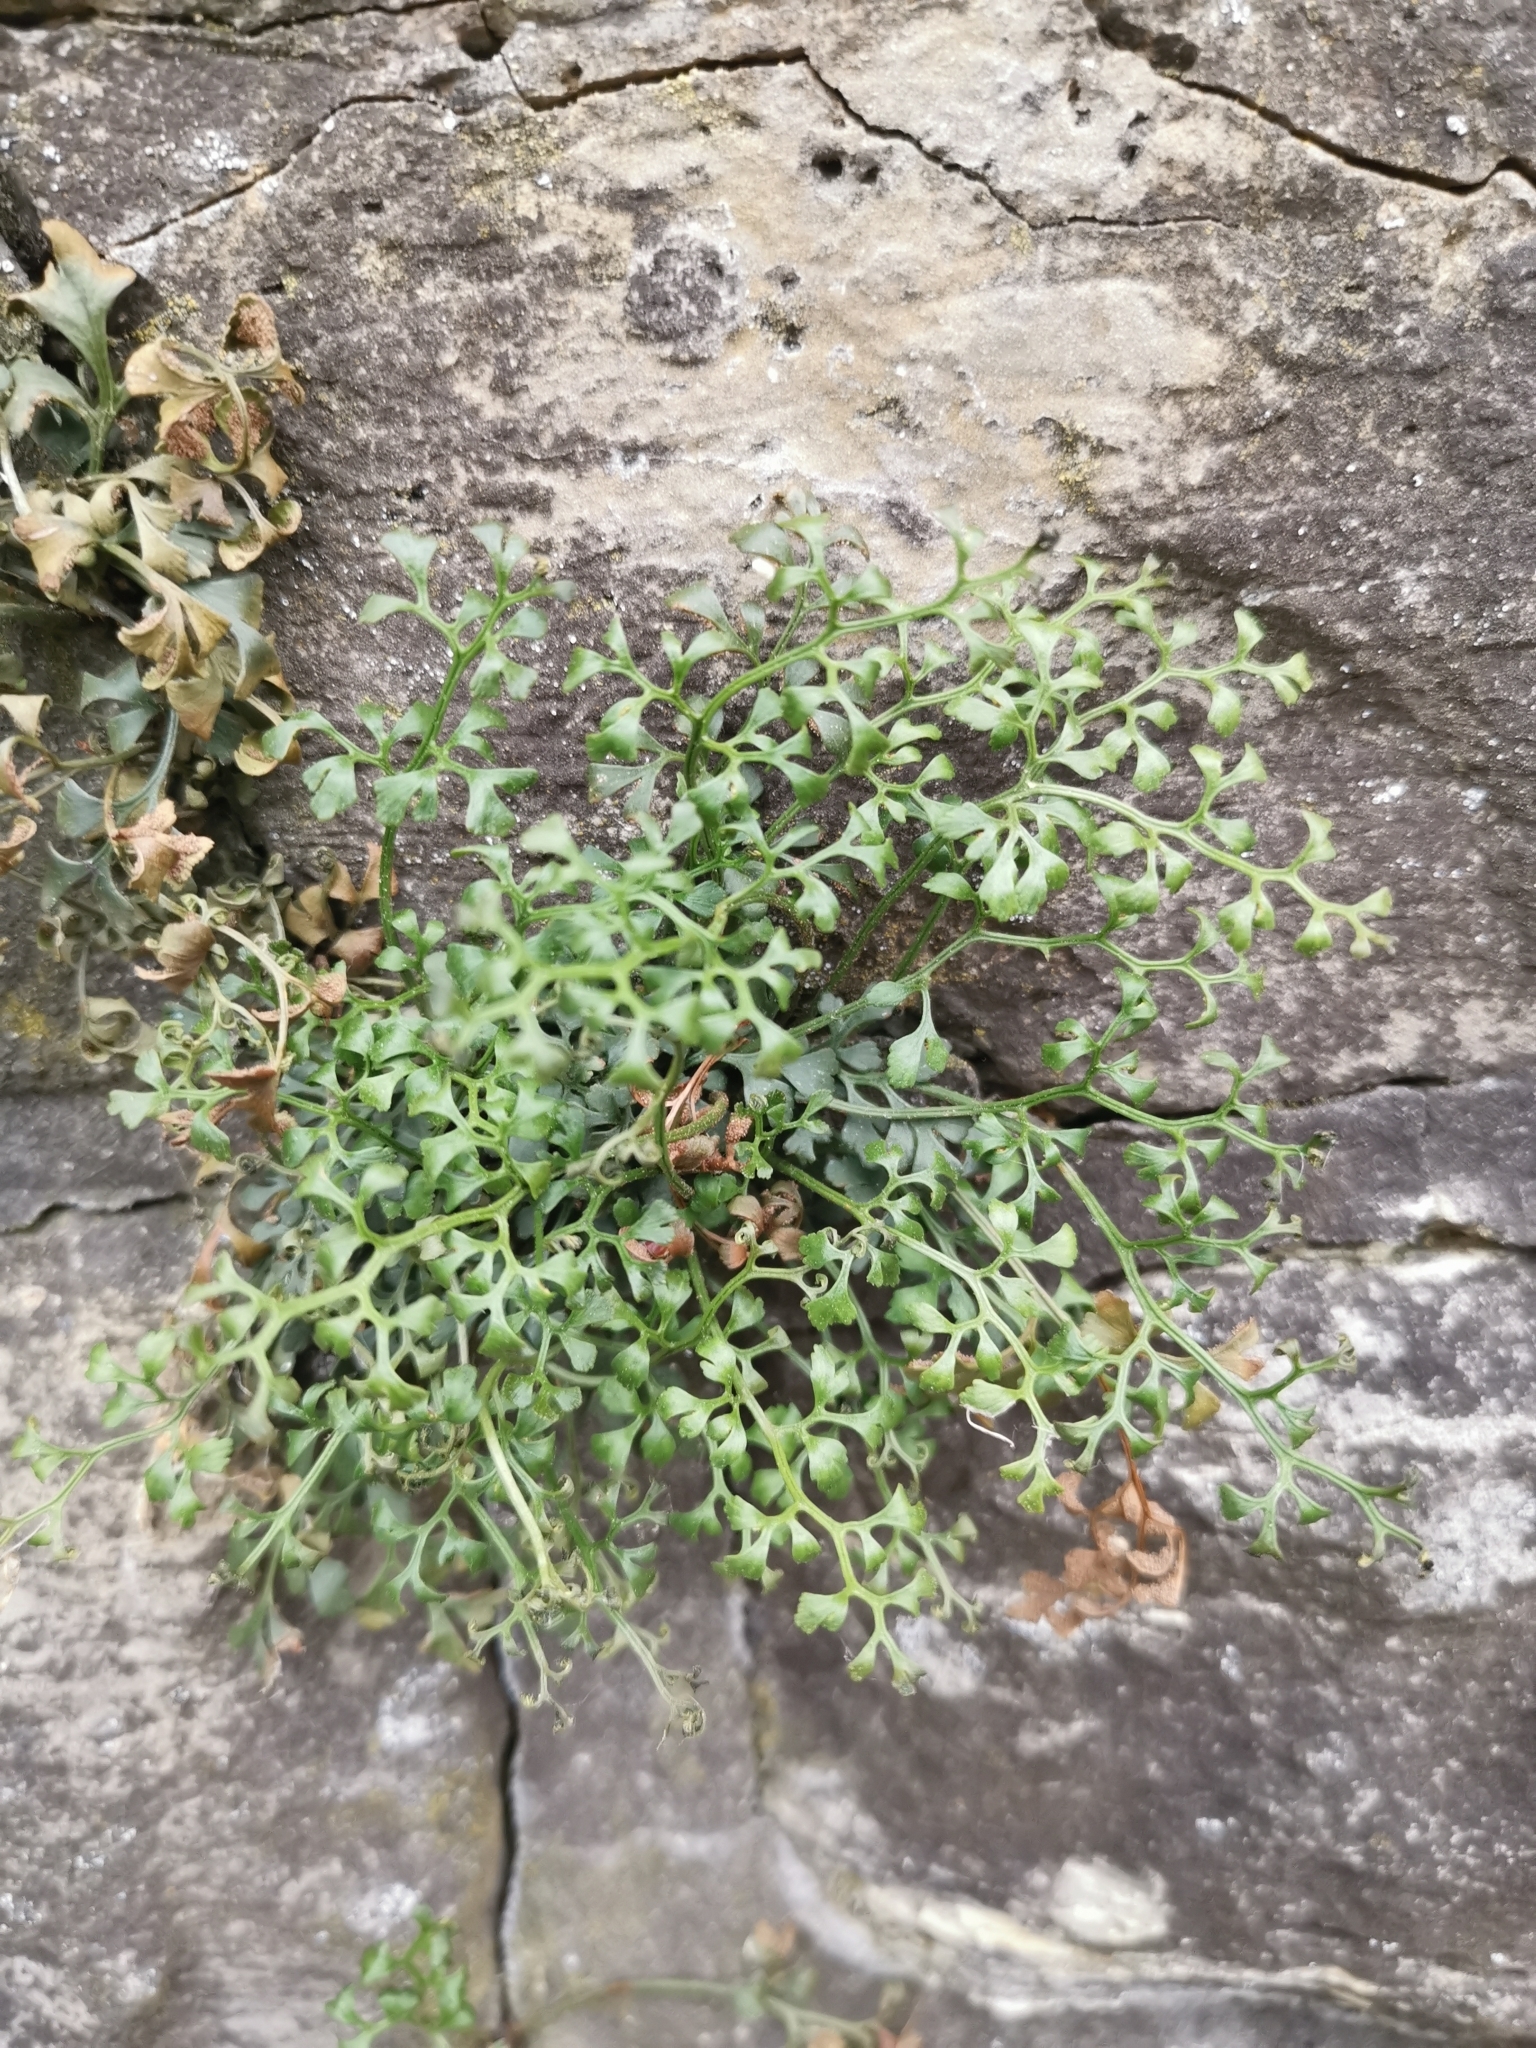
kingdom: Plantae
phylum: Tracheophyta
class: Polypodiopsida
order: Polypodiales
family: Aspleniaceae
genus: Asplenium
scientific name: Asplenium ruta-muraria
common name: Wall-rue
